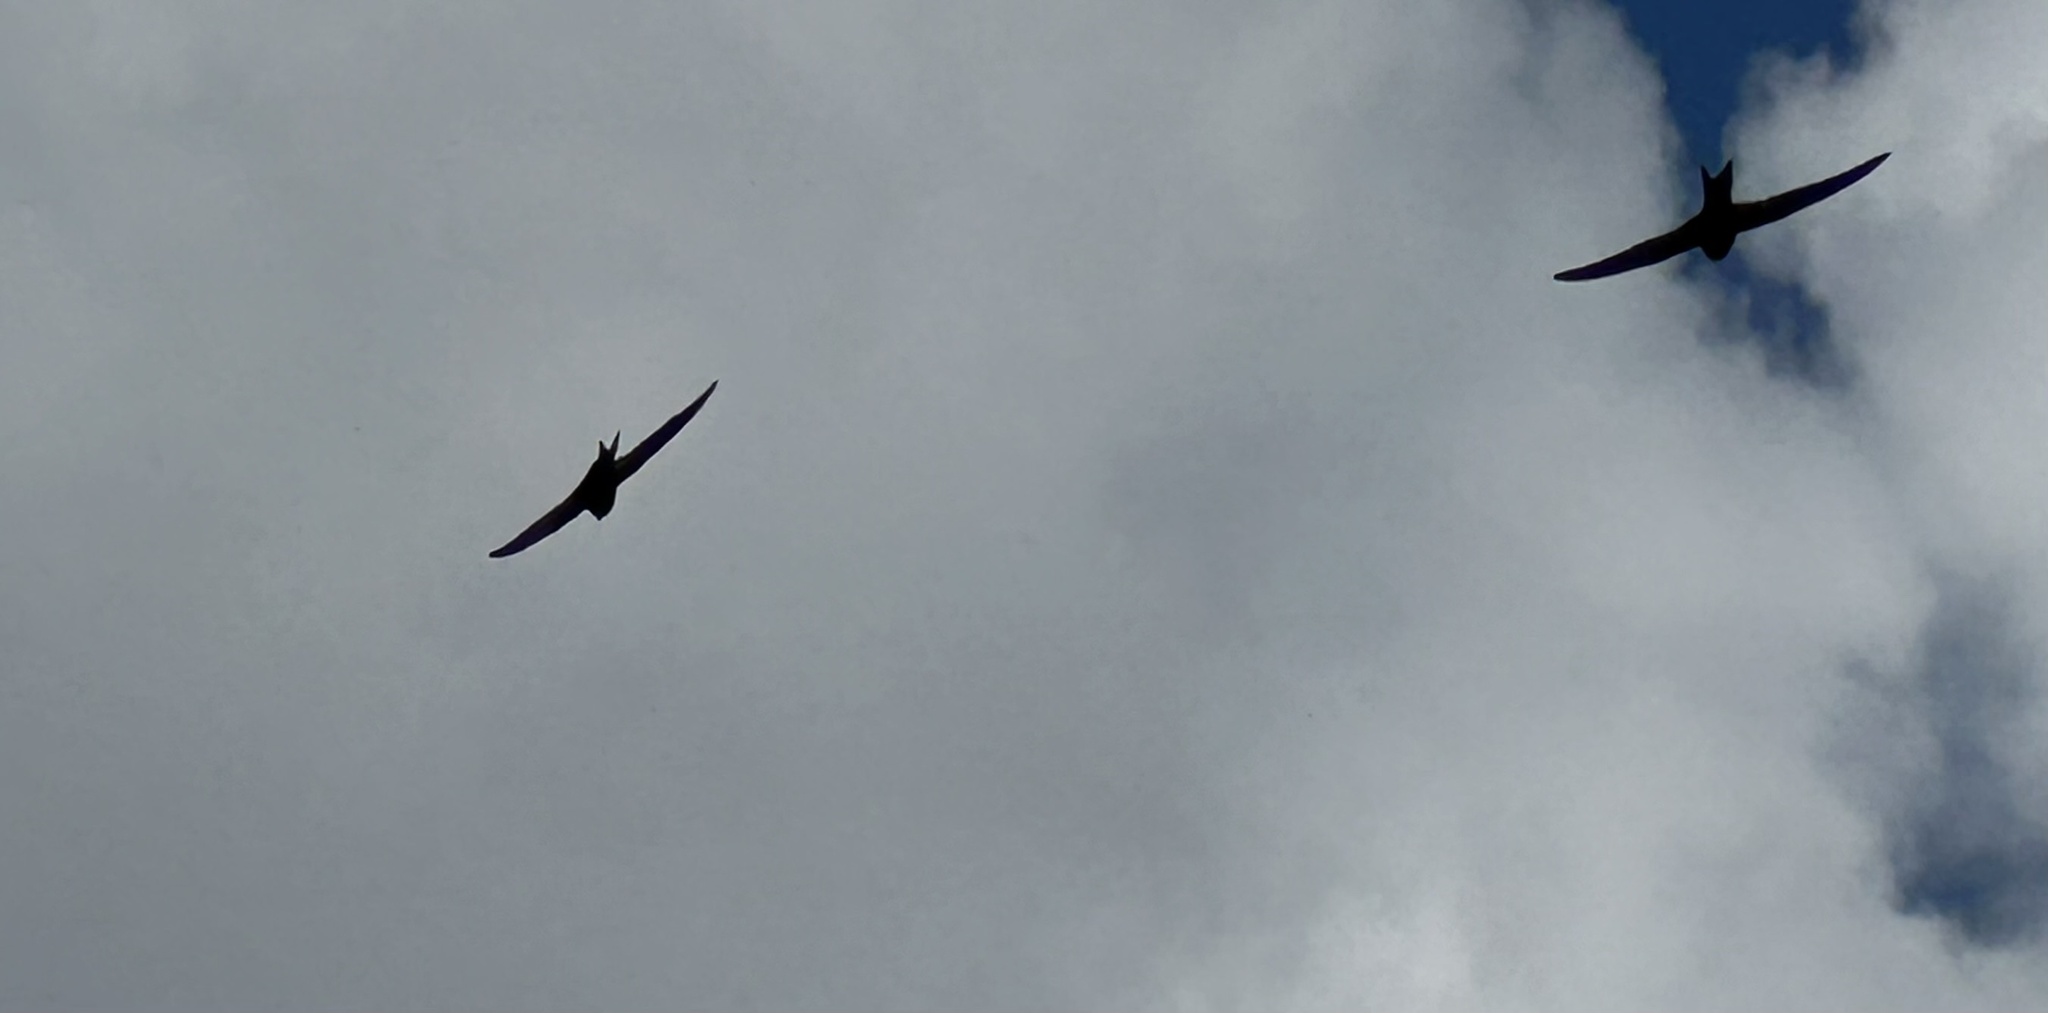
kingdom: Animalia
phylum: Chordata
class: Aves
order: Apodiformes
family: Apodidae
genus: Apus
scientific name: Apus apus
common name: Common swift
